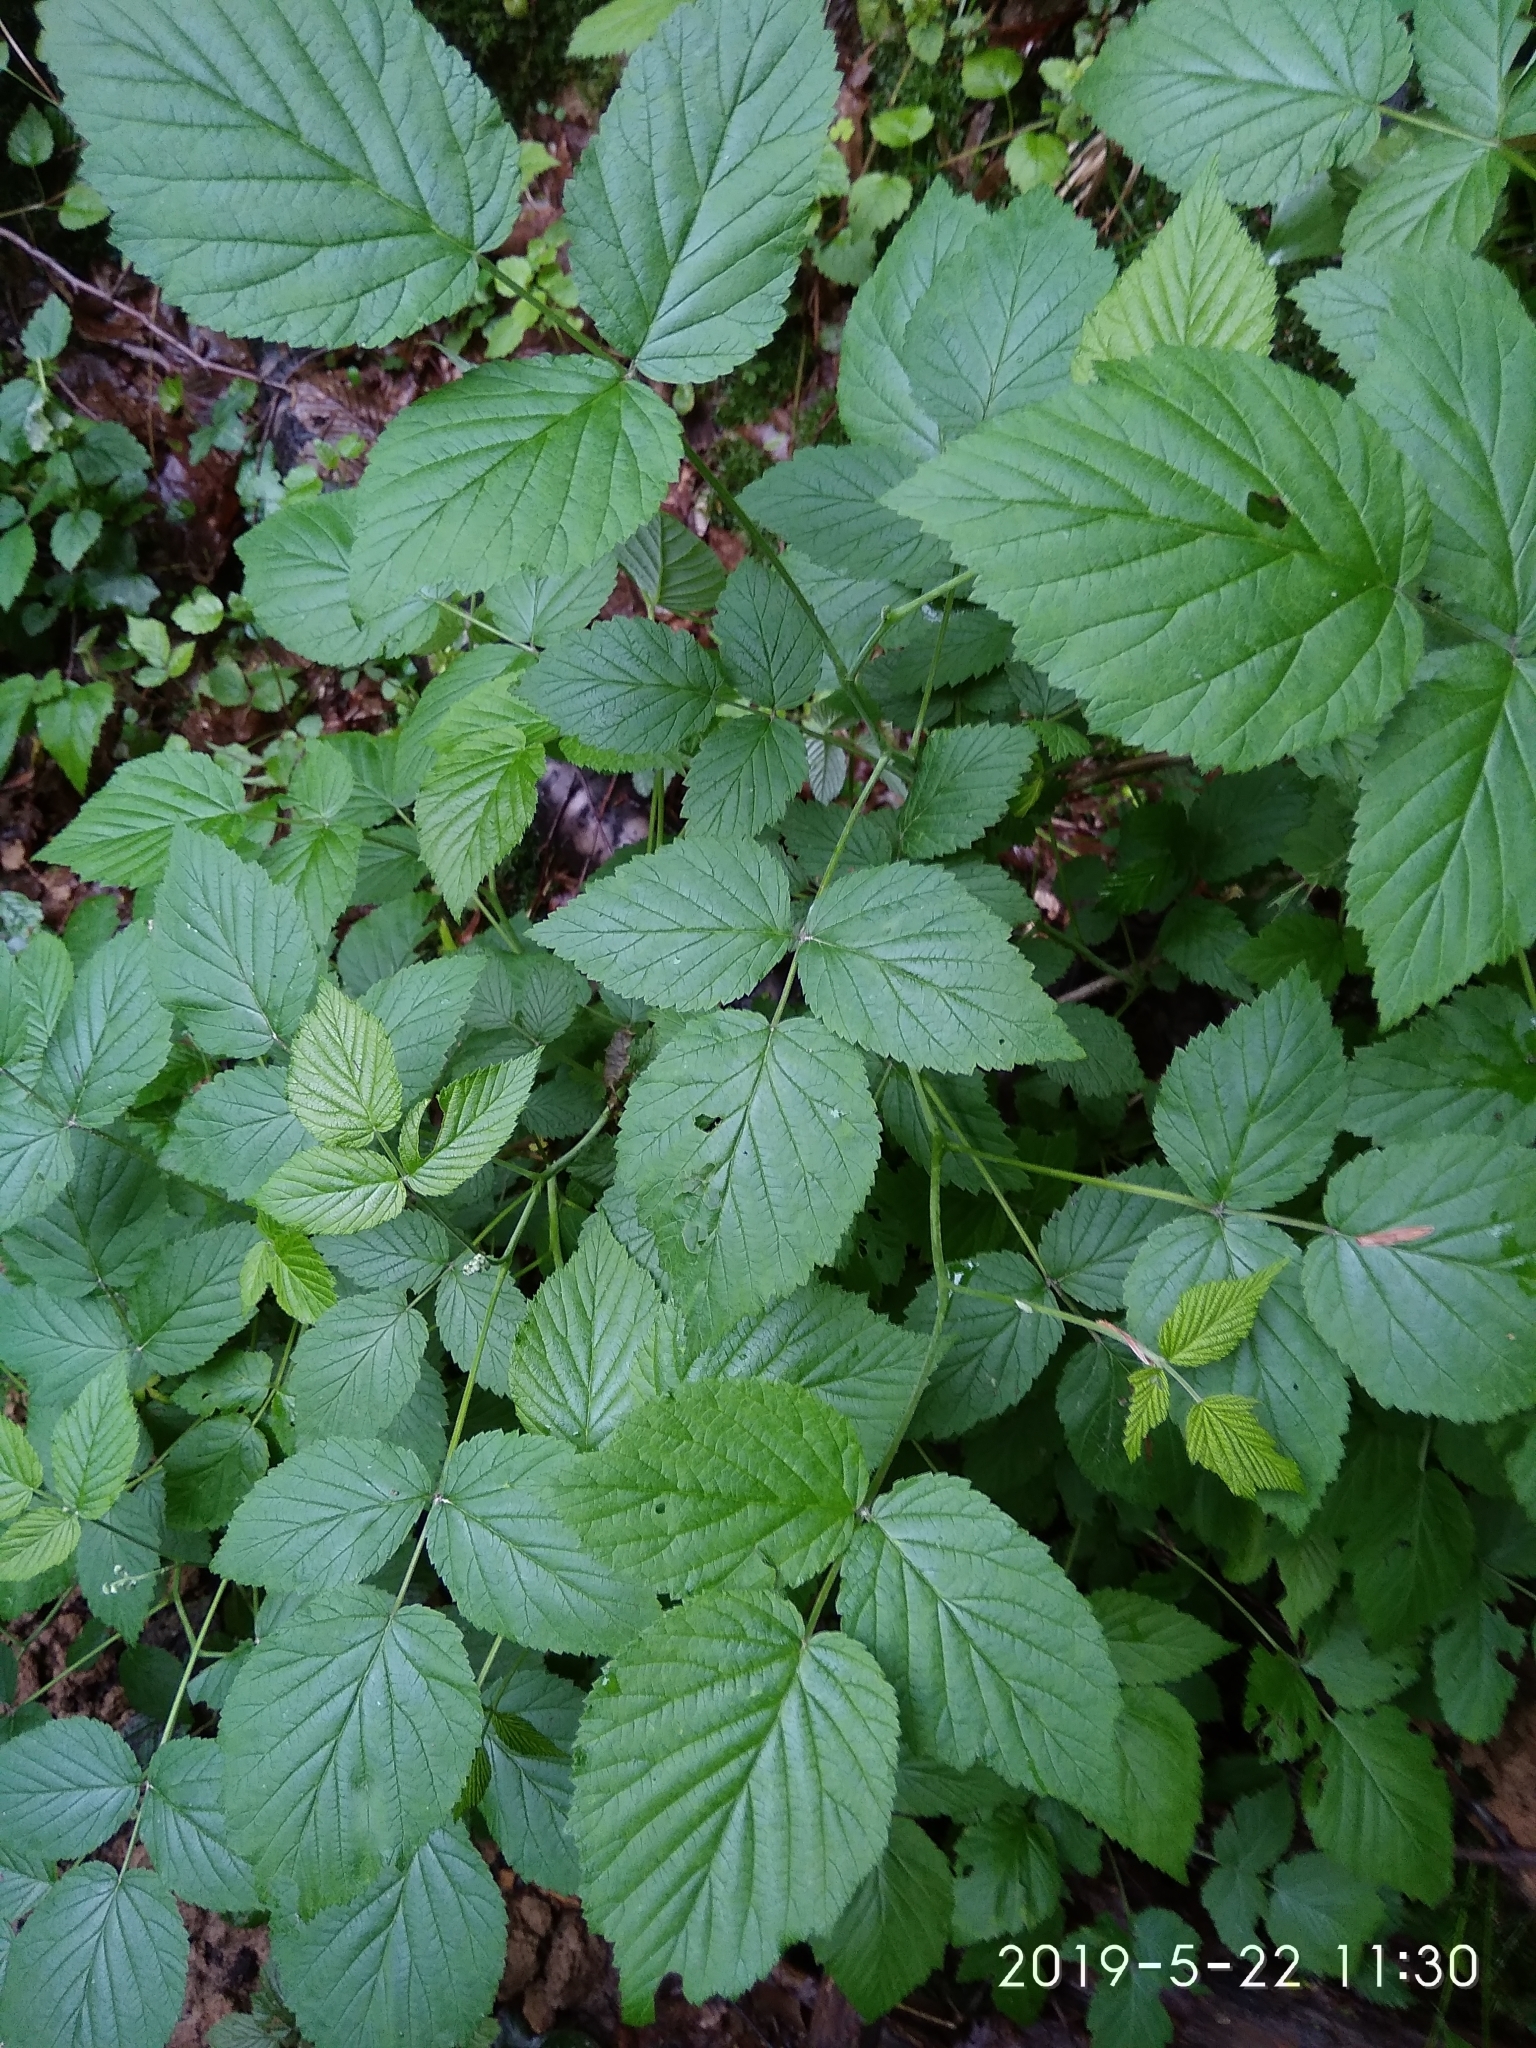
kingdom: Plantae
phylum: Tracheophyta
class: Magnoliopsida
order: Rosales
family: Rosaceae
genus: Rubus
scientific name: Rubus idaeus
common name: Raspberry
